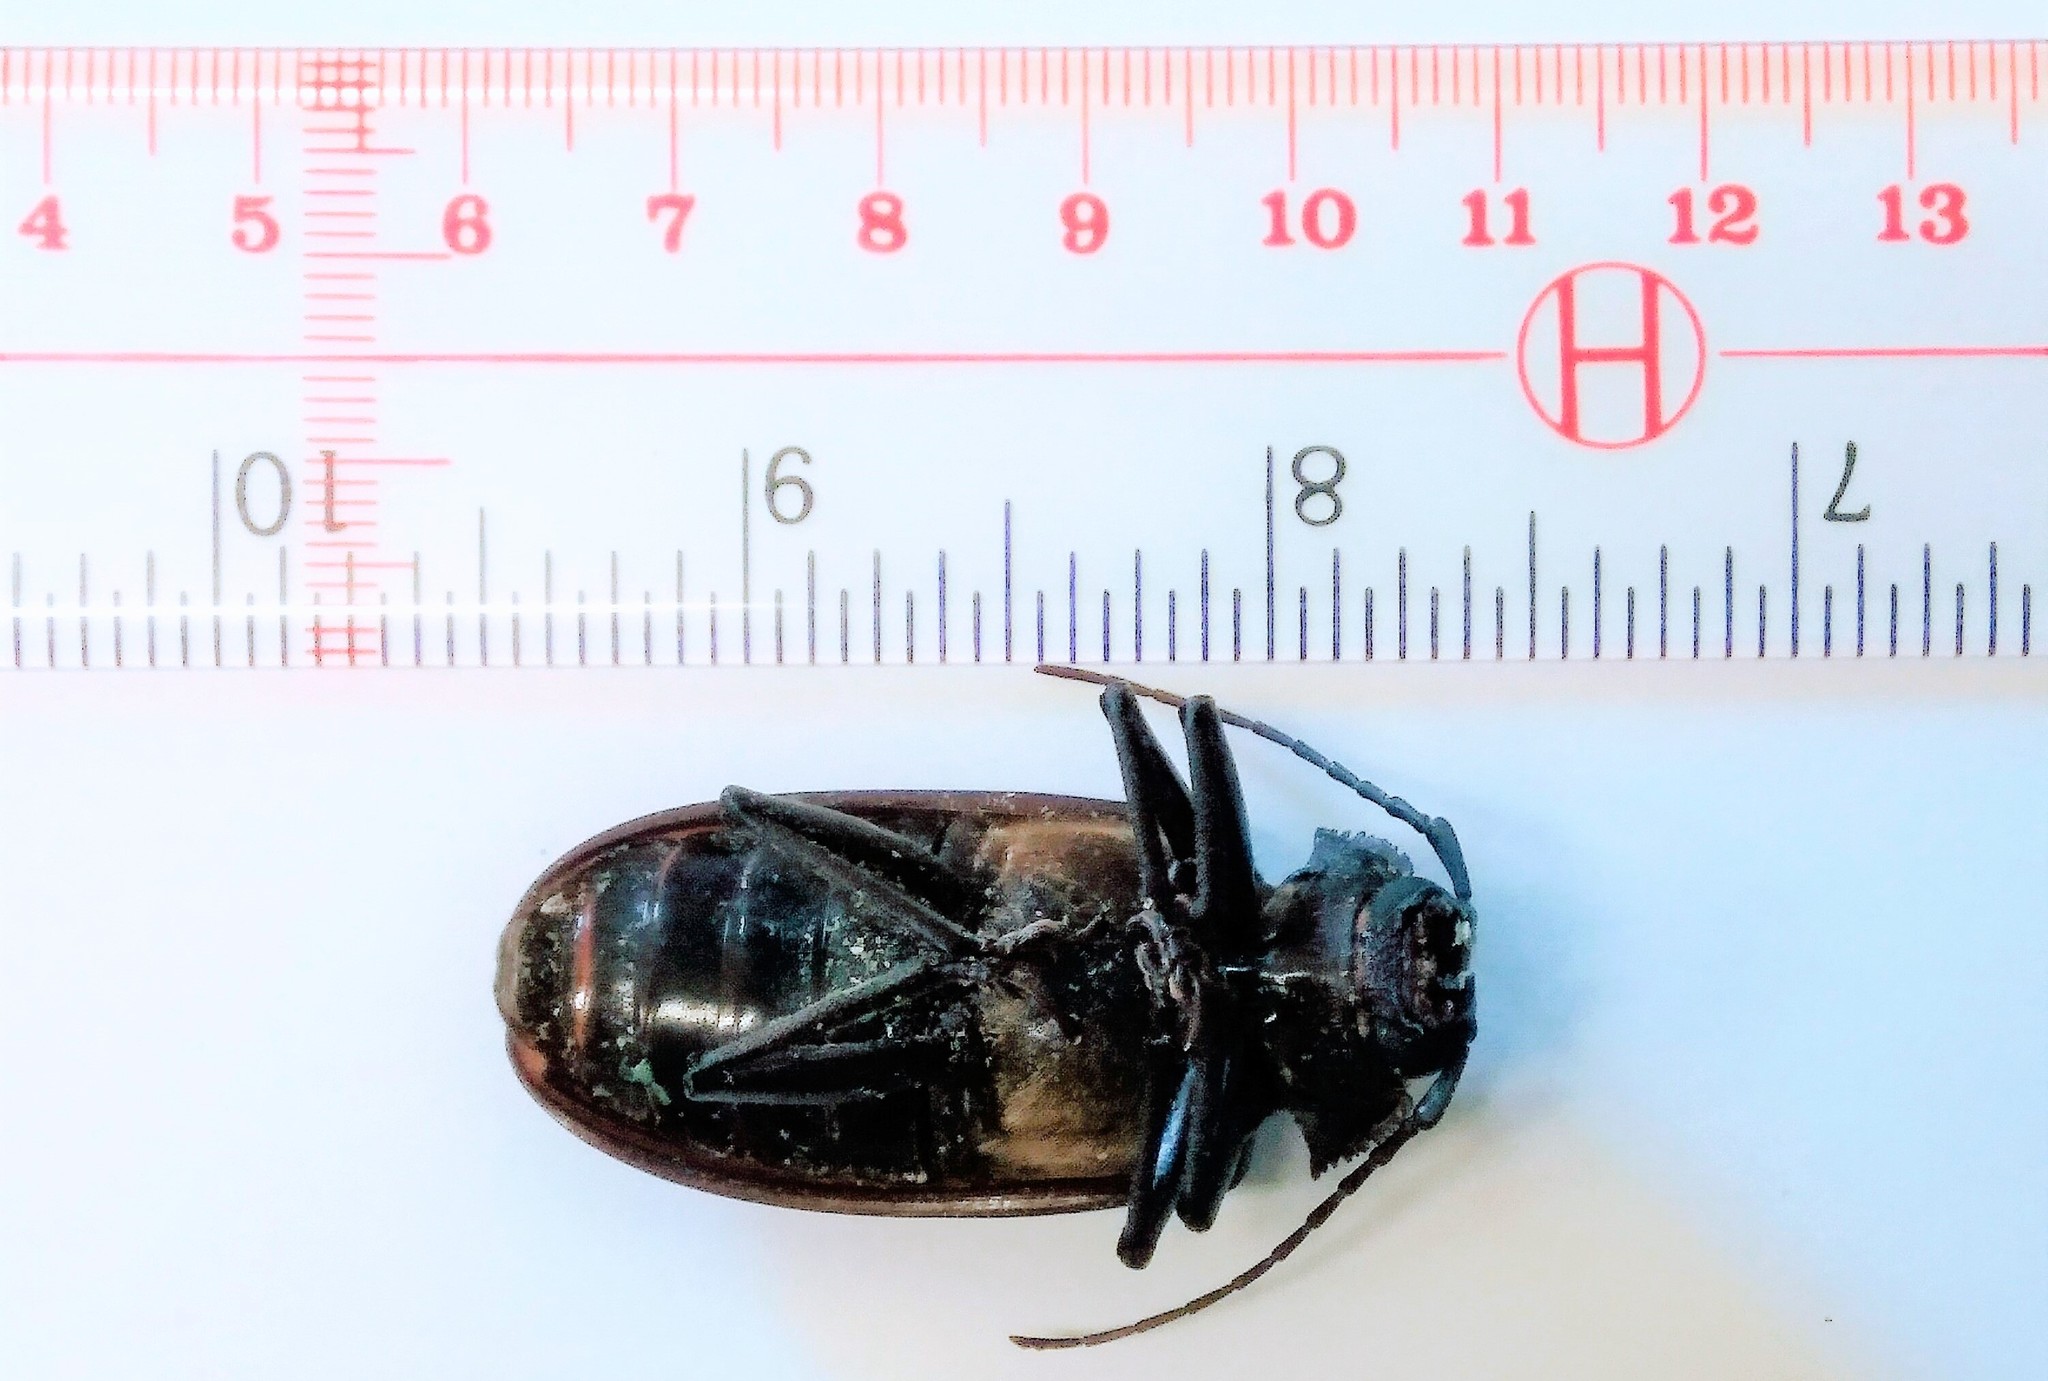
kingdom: Animalia
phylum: Arthropoda
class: Insecta
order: Coleoptera
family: Cerambycidae
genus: Olethrius
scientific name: Olethrius carolinensis
